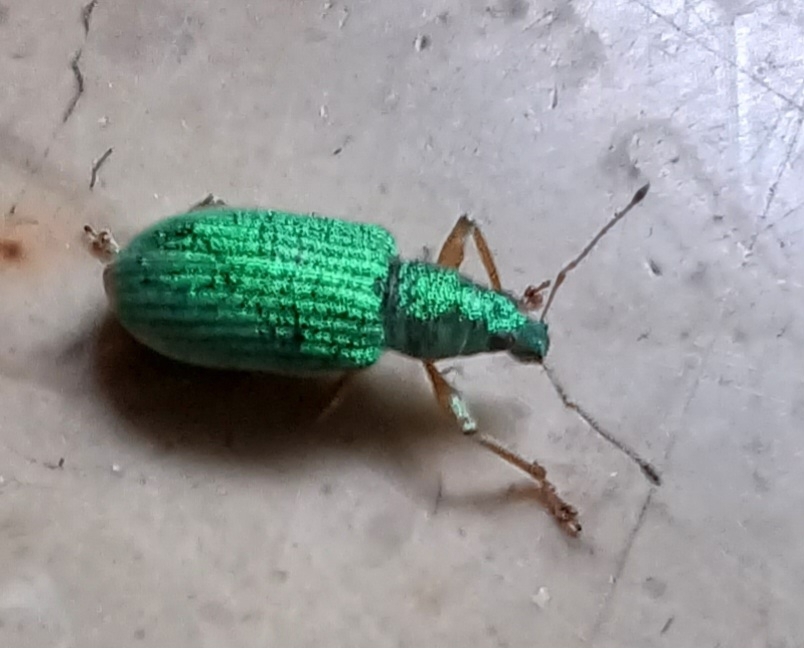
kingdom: Animalia
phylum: Arthropoda
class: Insecta
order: Coleoptera
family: Curculionidae
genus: Polydrusus
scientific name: Polydrusus formosus
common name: Weevil
